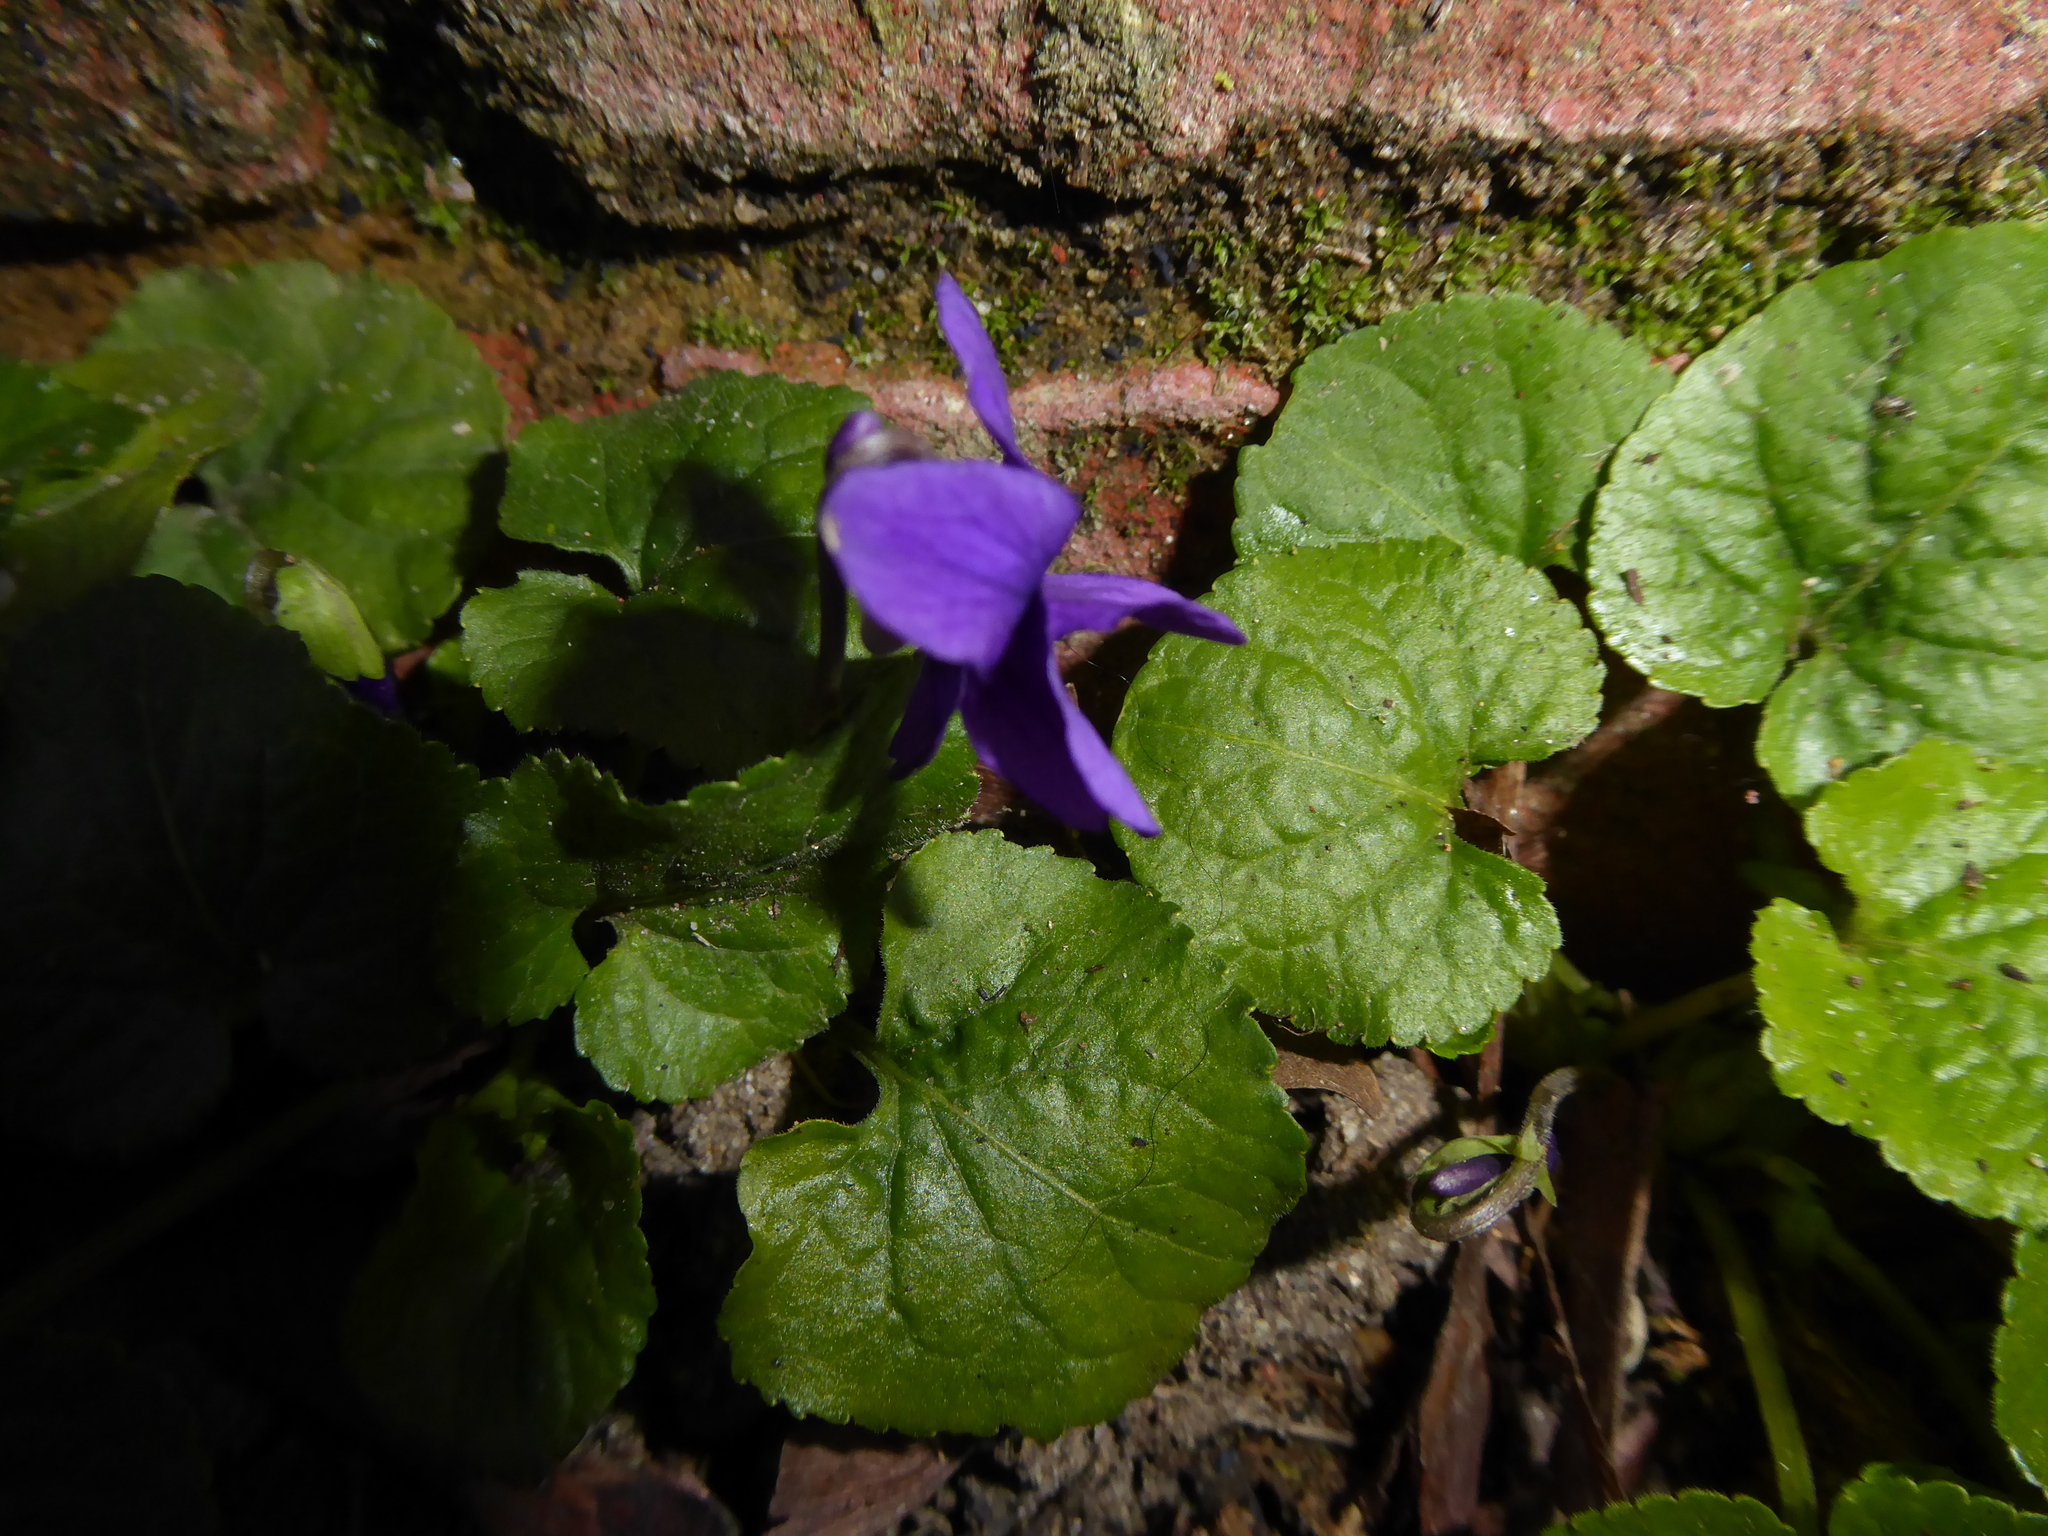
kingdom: Plantae
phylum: Tracheophyta
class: Magnoliopsida
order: Malpighiales
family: Violaceae
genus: Viola
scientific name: Viola odorata
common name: Sweet violet
